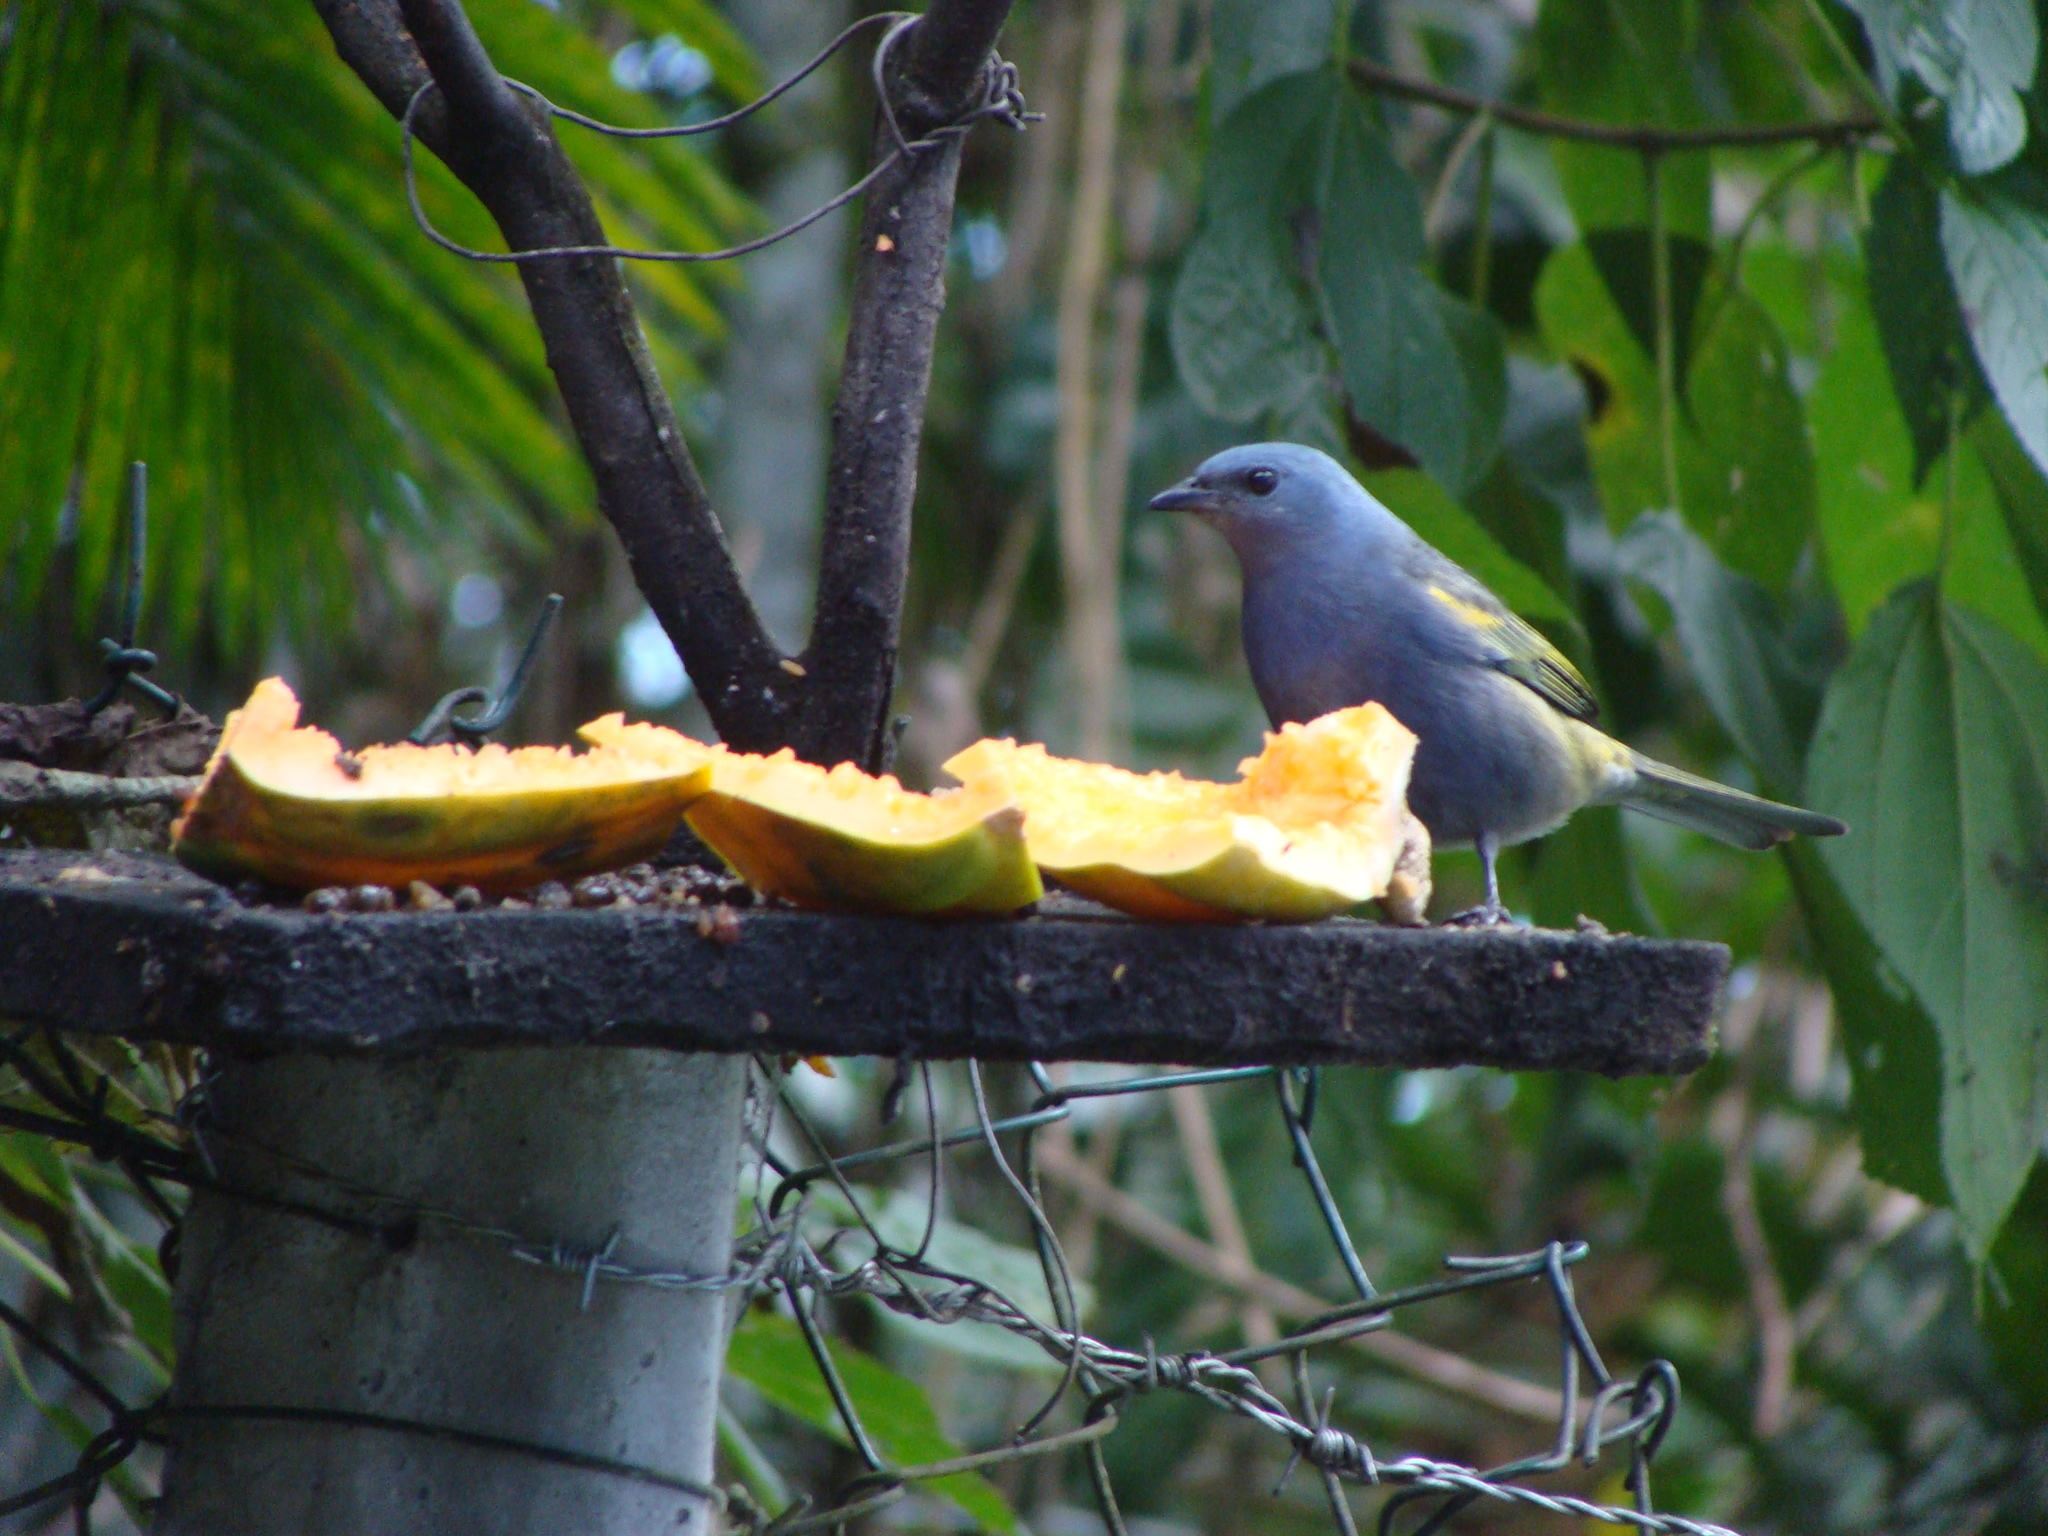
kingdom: Animalia
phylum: Chordata
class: Aves
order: Passeriformes
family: Thraupidae
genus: Thraupis
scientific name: Thraupis ornata
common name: Golden-chevroned tanager
